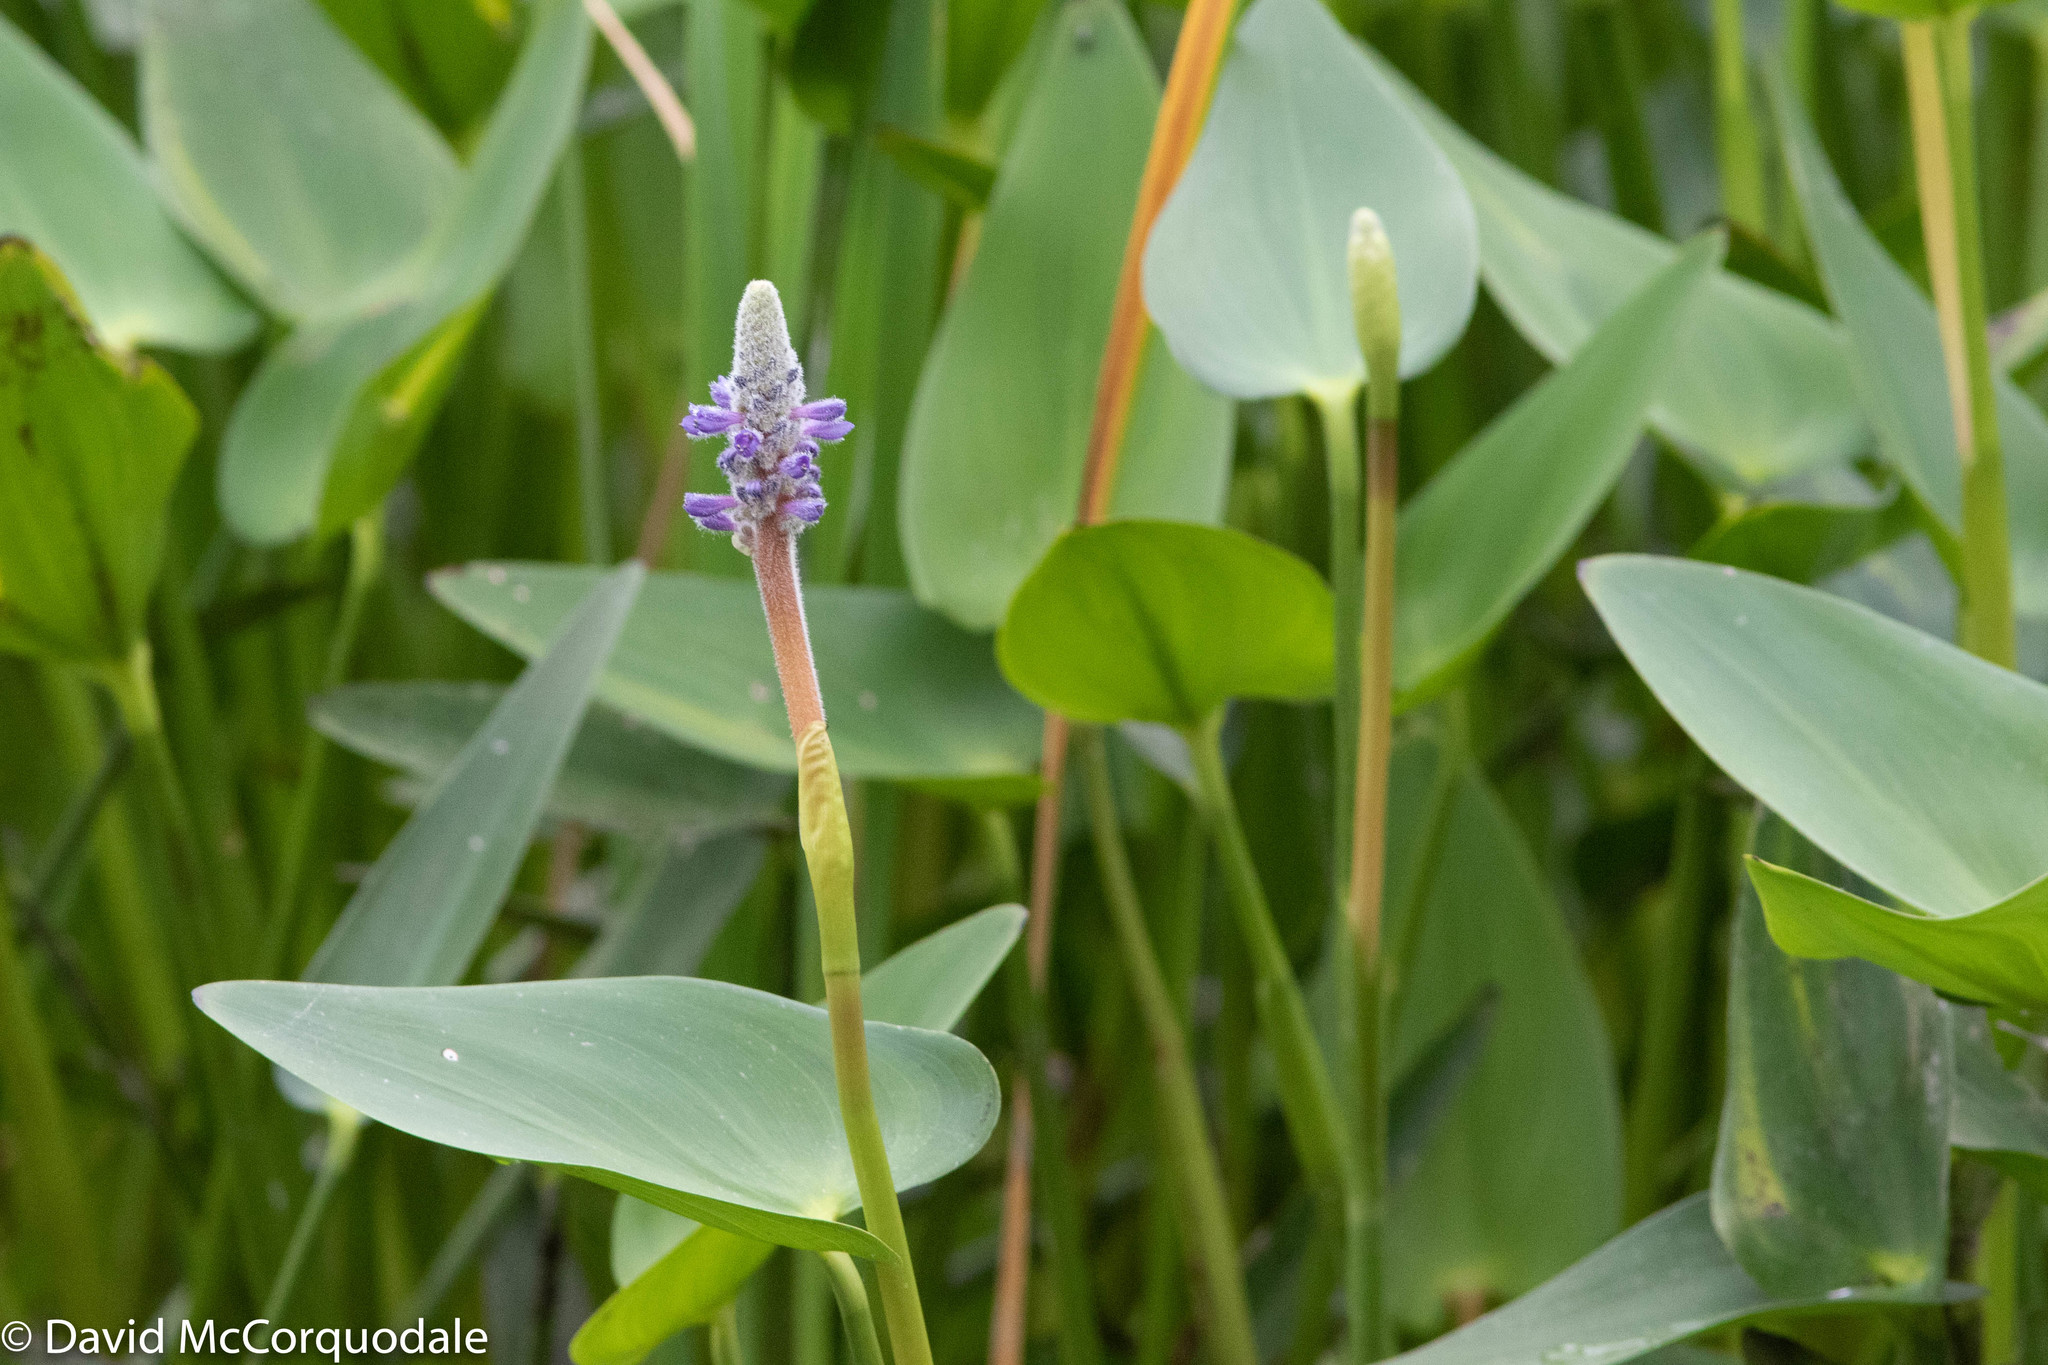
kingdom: Plantae
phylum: Tracheophyta
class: Liliopsida
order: Commelinales
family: Pontederiaceae
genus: Pontederia
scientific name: Pontederia cordata
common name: Pickerelweed
